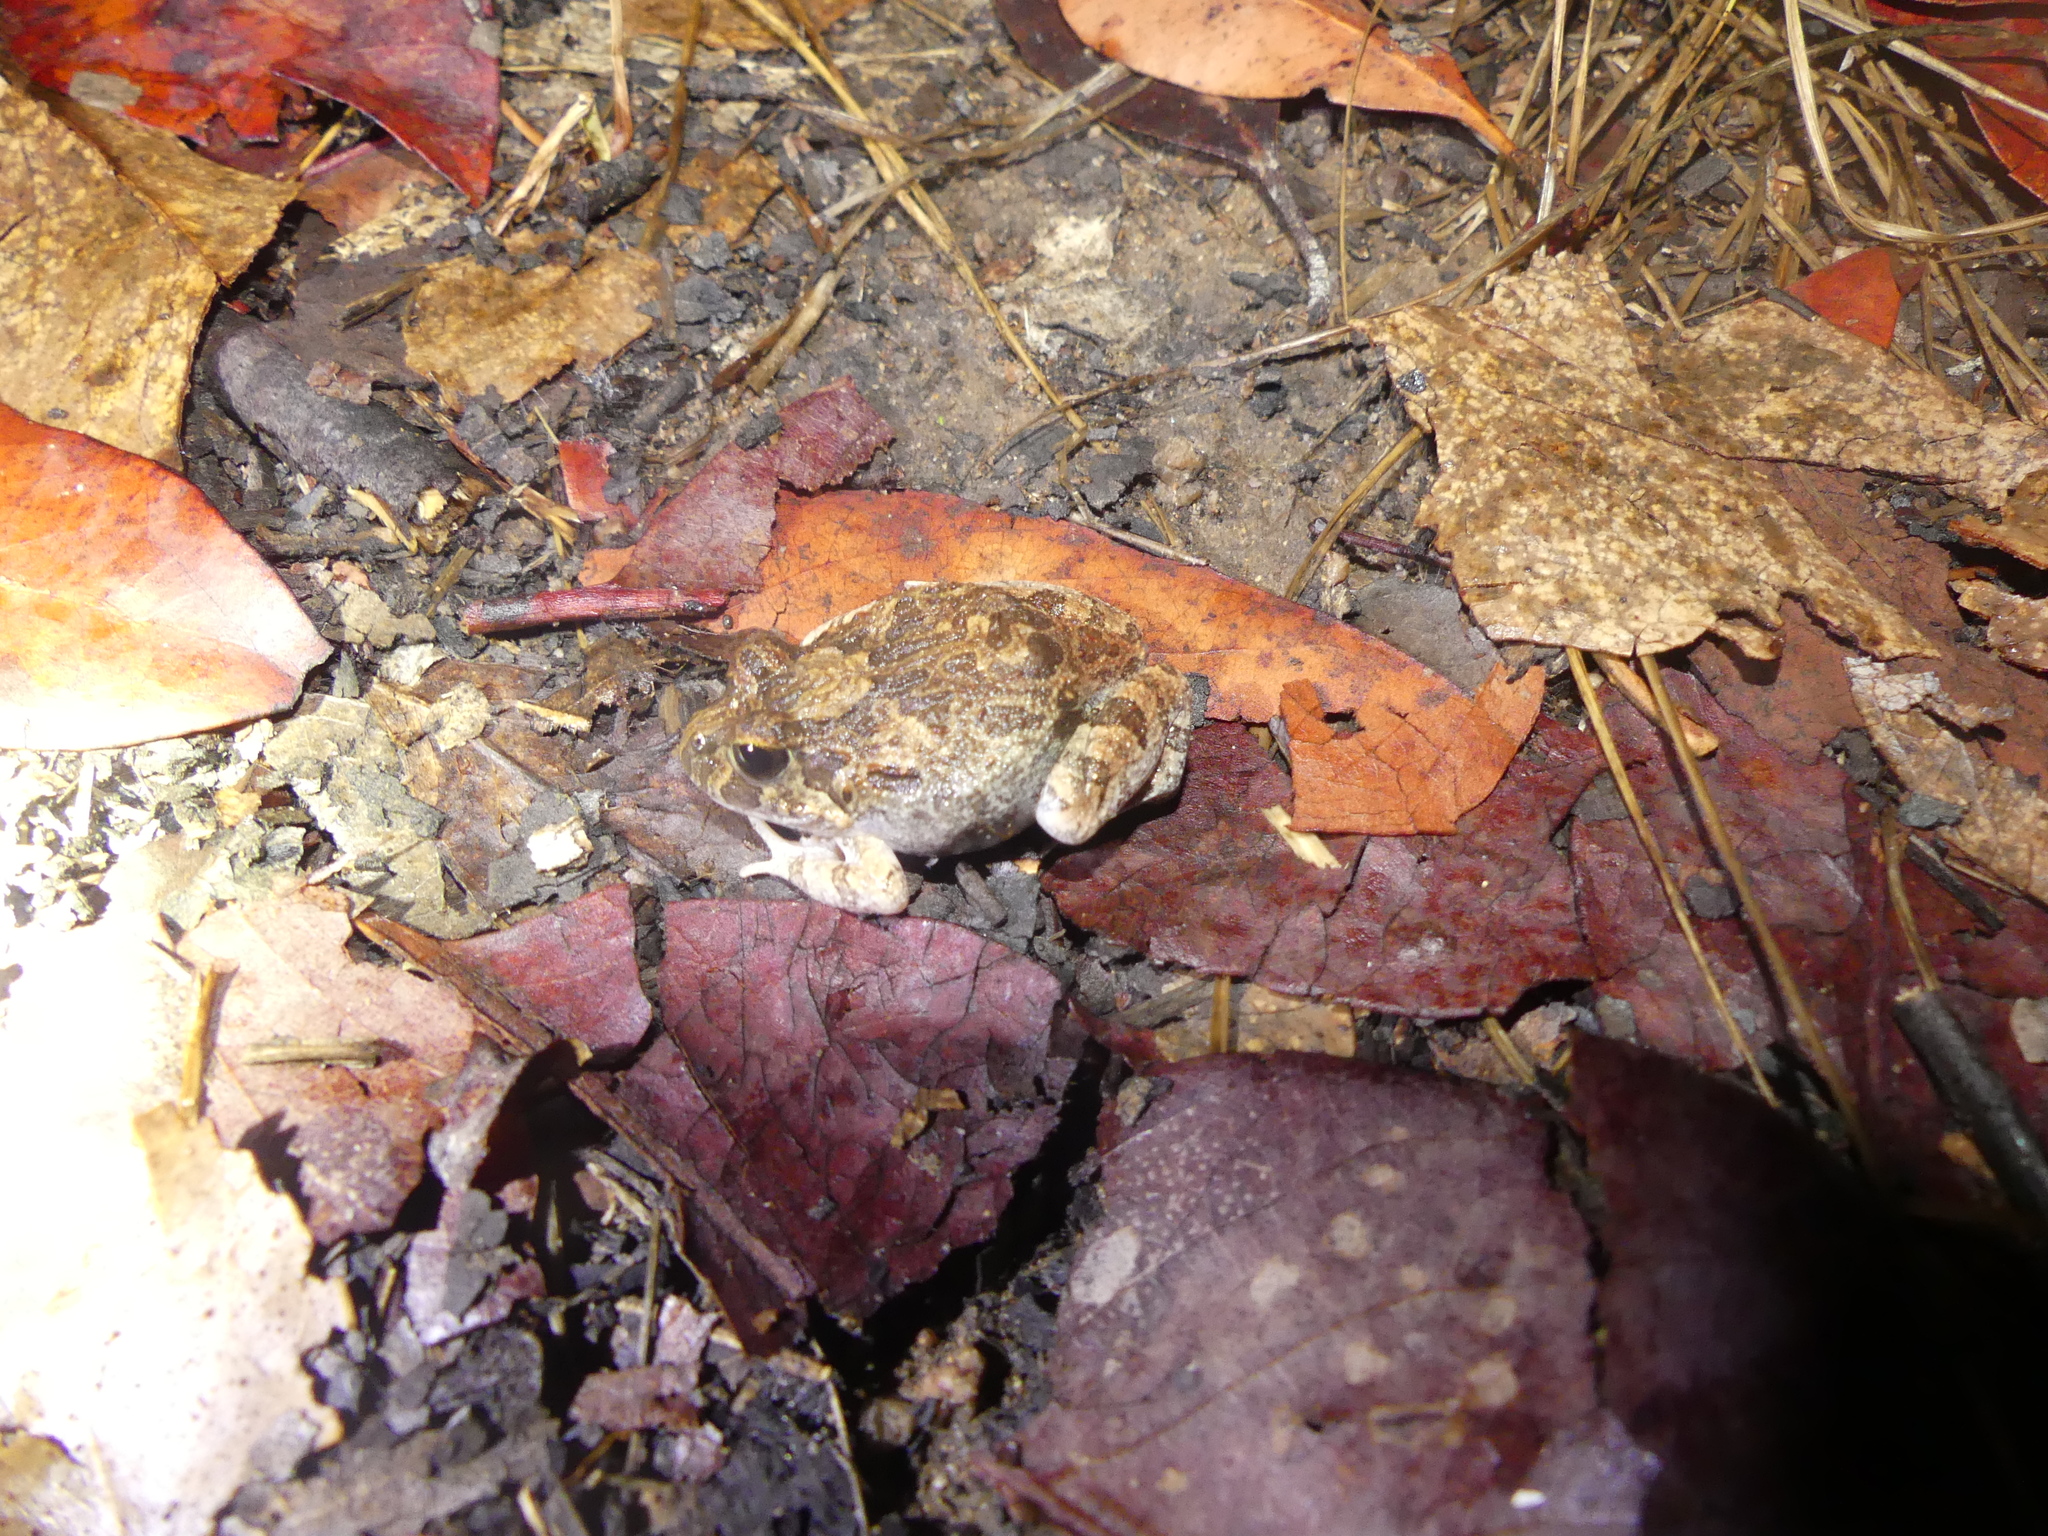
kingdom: Animalia
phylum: Chordata
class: Amphibia
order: Anura
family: Limnodynastidae
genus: Platyplectrum
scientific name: Platyplectrum ornatum
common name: Ornate burrowing frog
